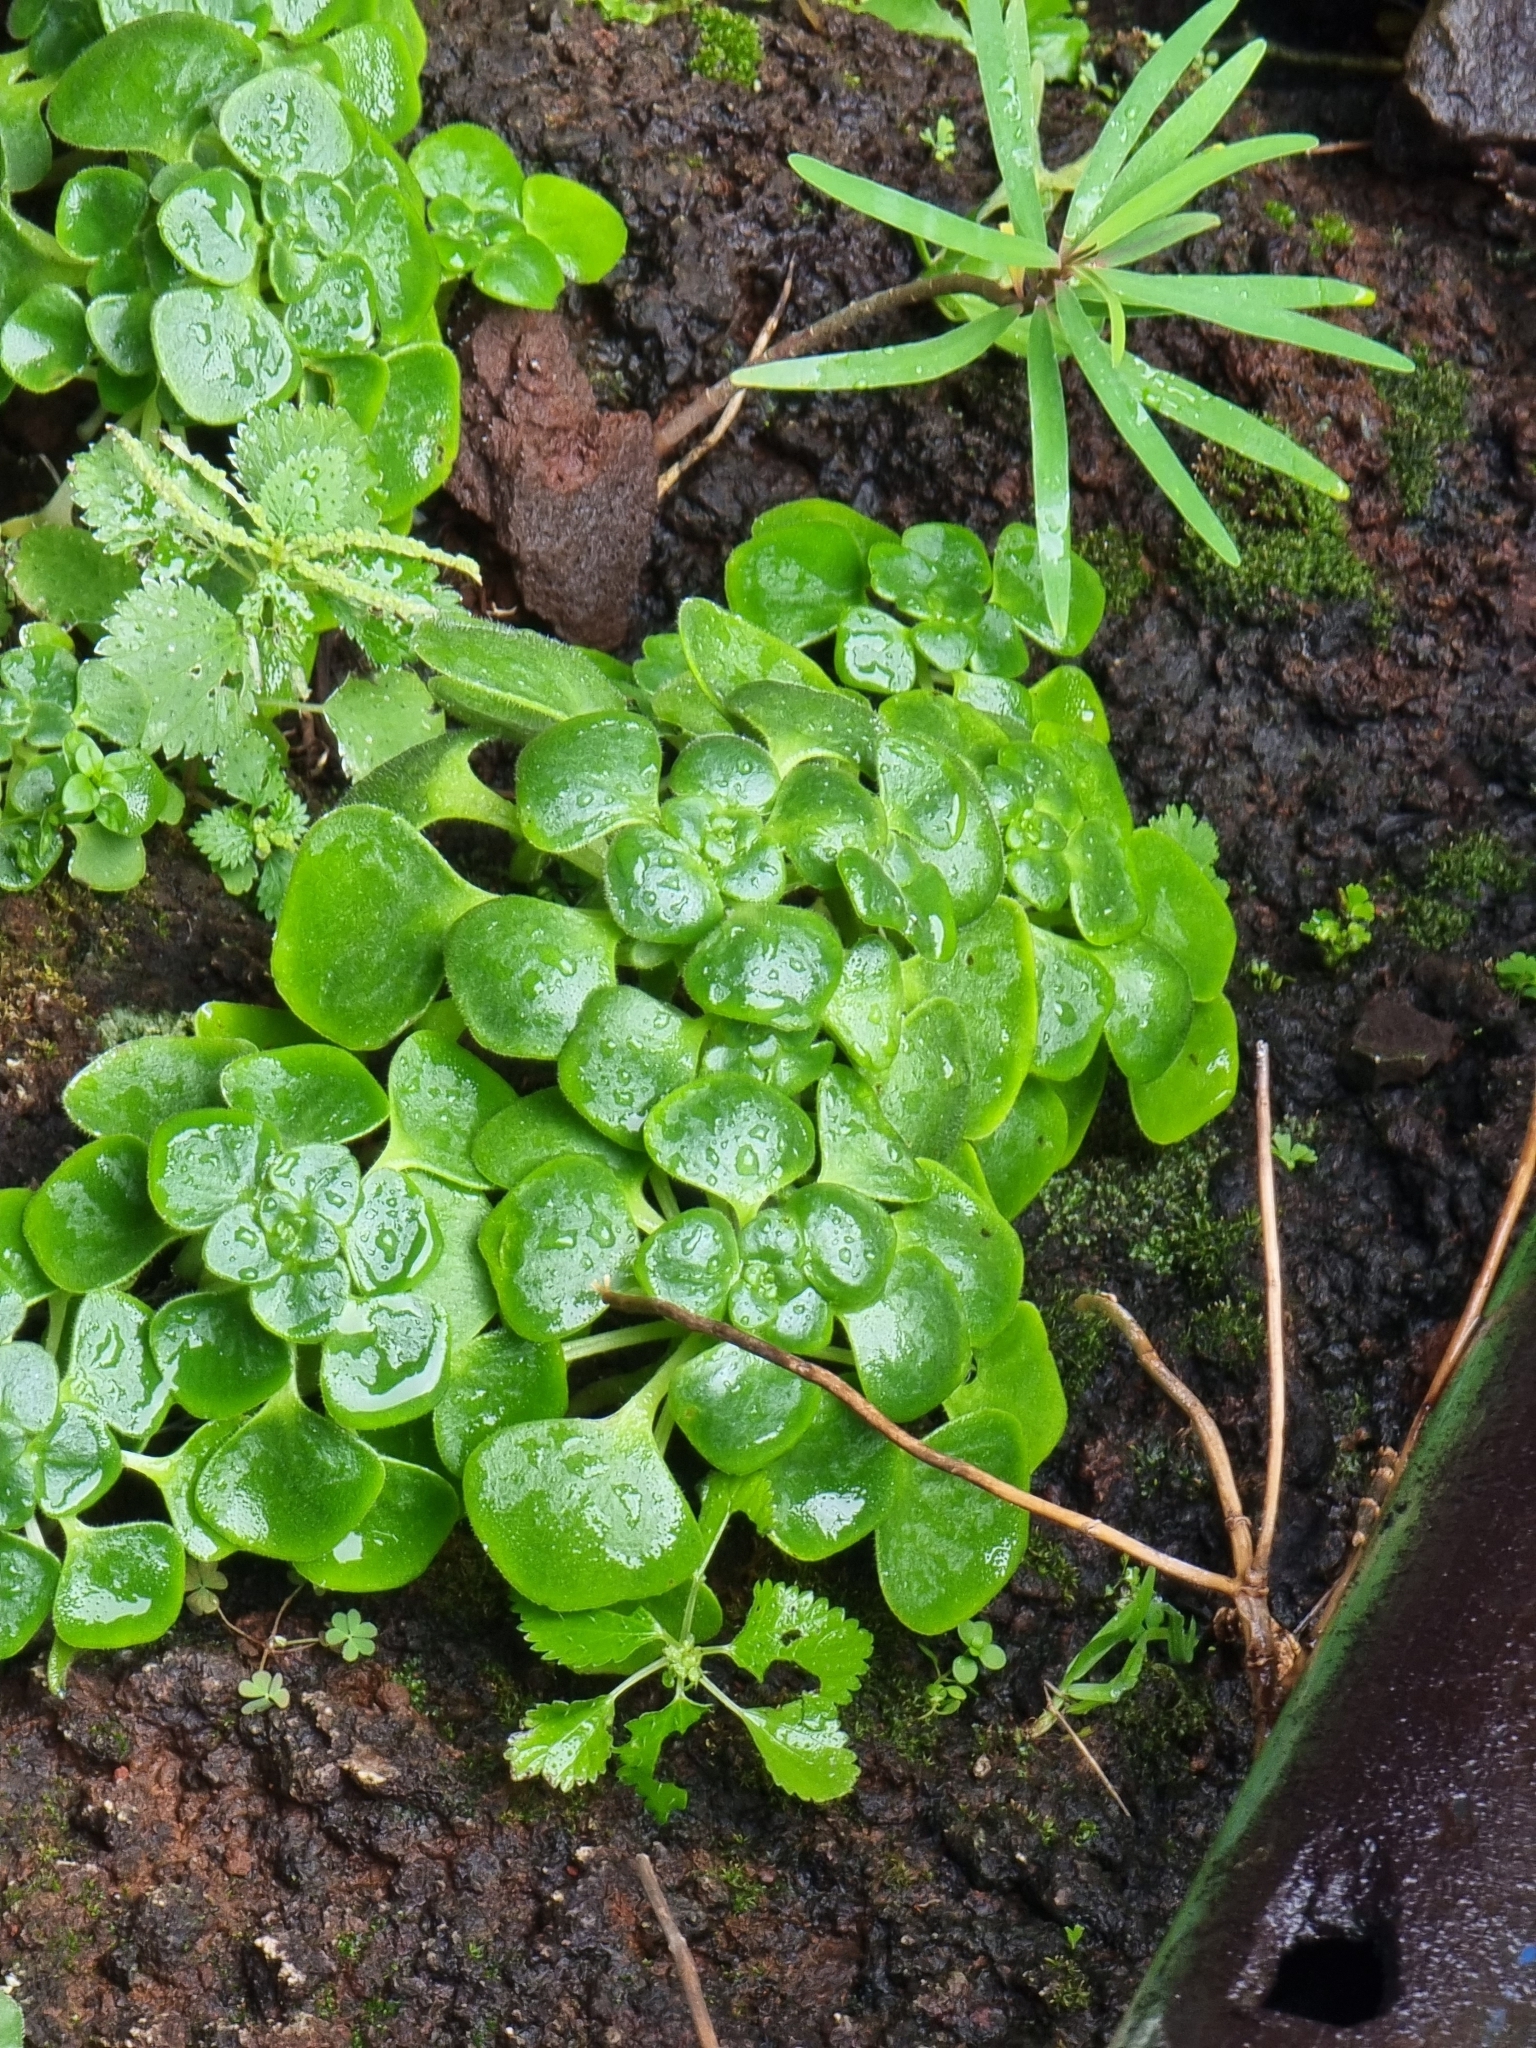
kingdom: Plantae
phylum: Tracheophyta
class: Magnoliopsida
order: Saxifragales
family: Crassulaceae
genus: Aichryson
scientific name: Aichryson divaricatum
